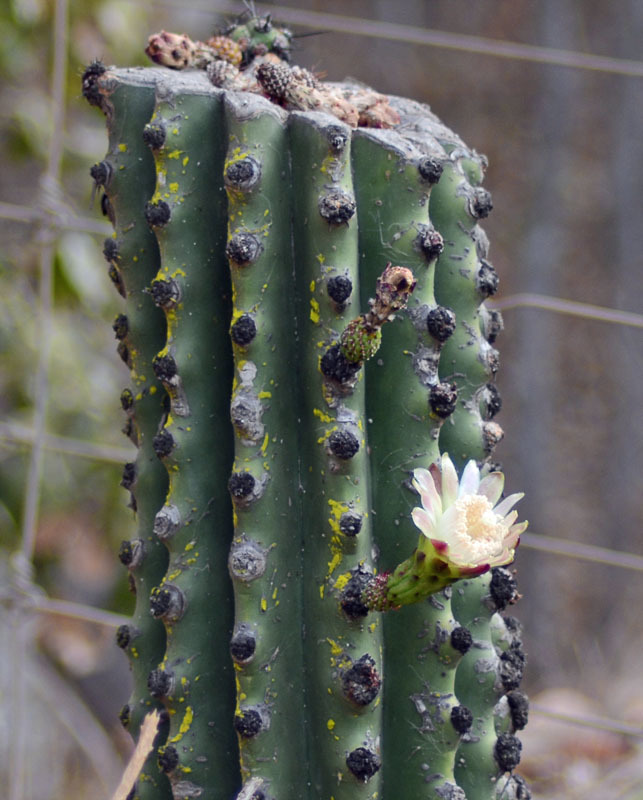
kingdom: Plantae
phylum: Tracheophyta
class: Magnoliopsida
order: Caryophyllales
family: Cactaceae
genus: Stenocereus
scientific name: Stenocereus martinezii
